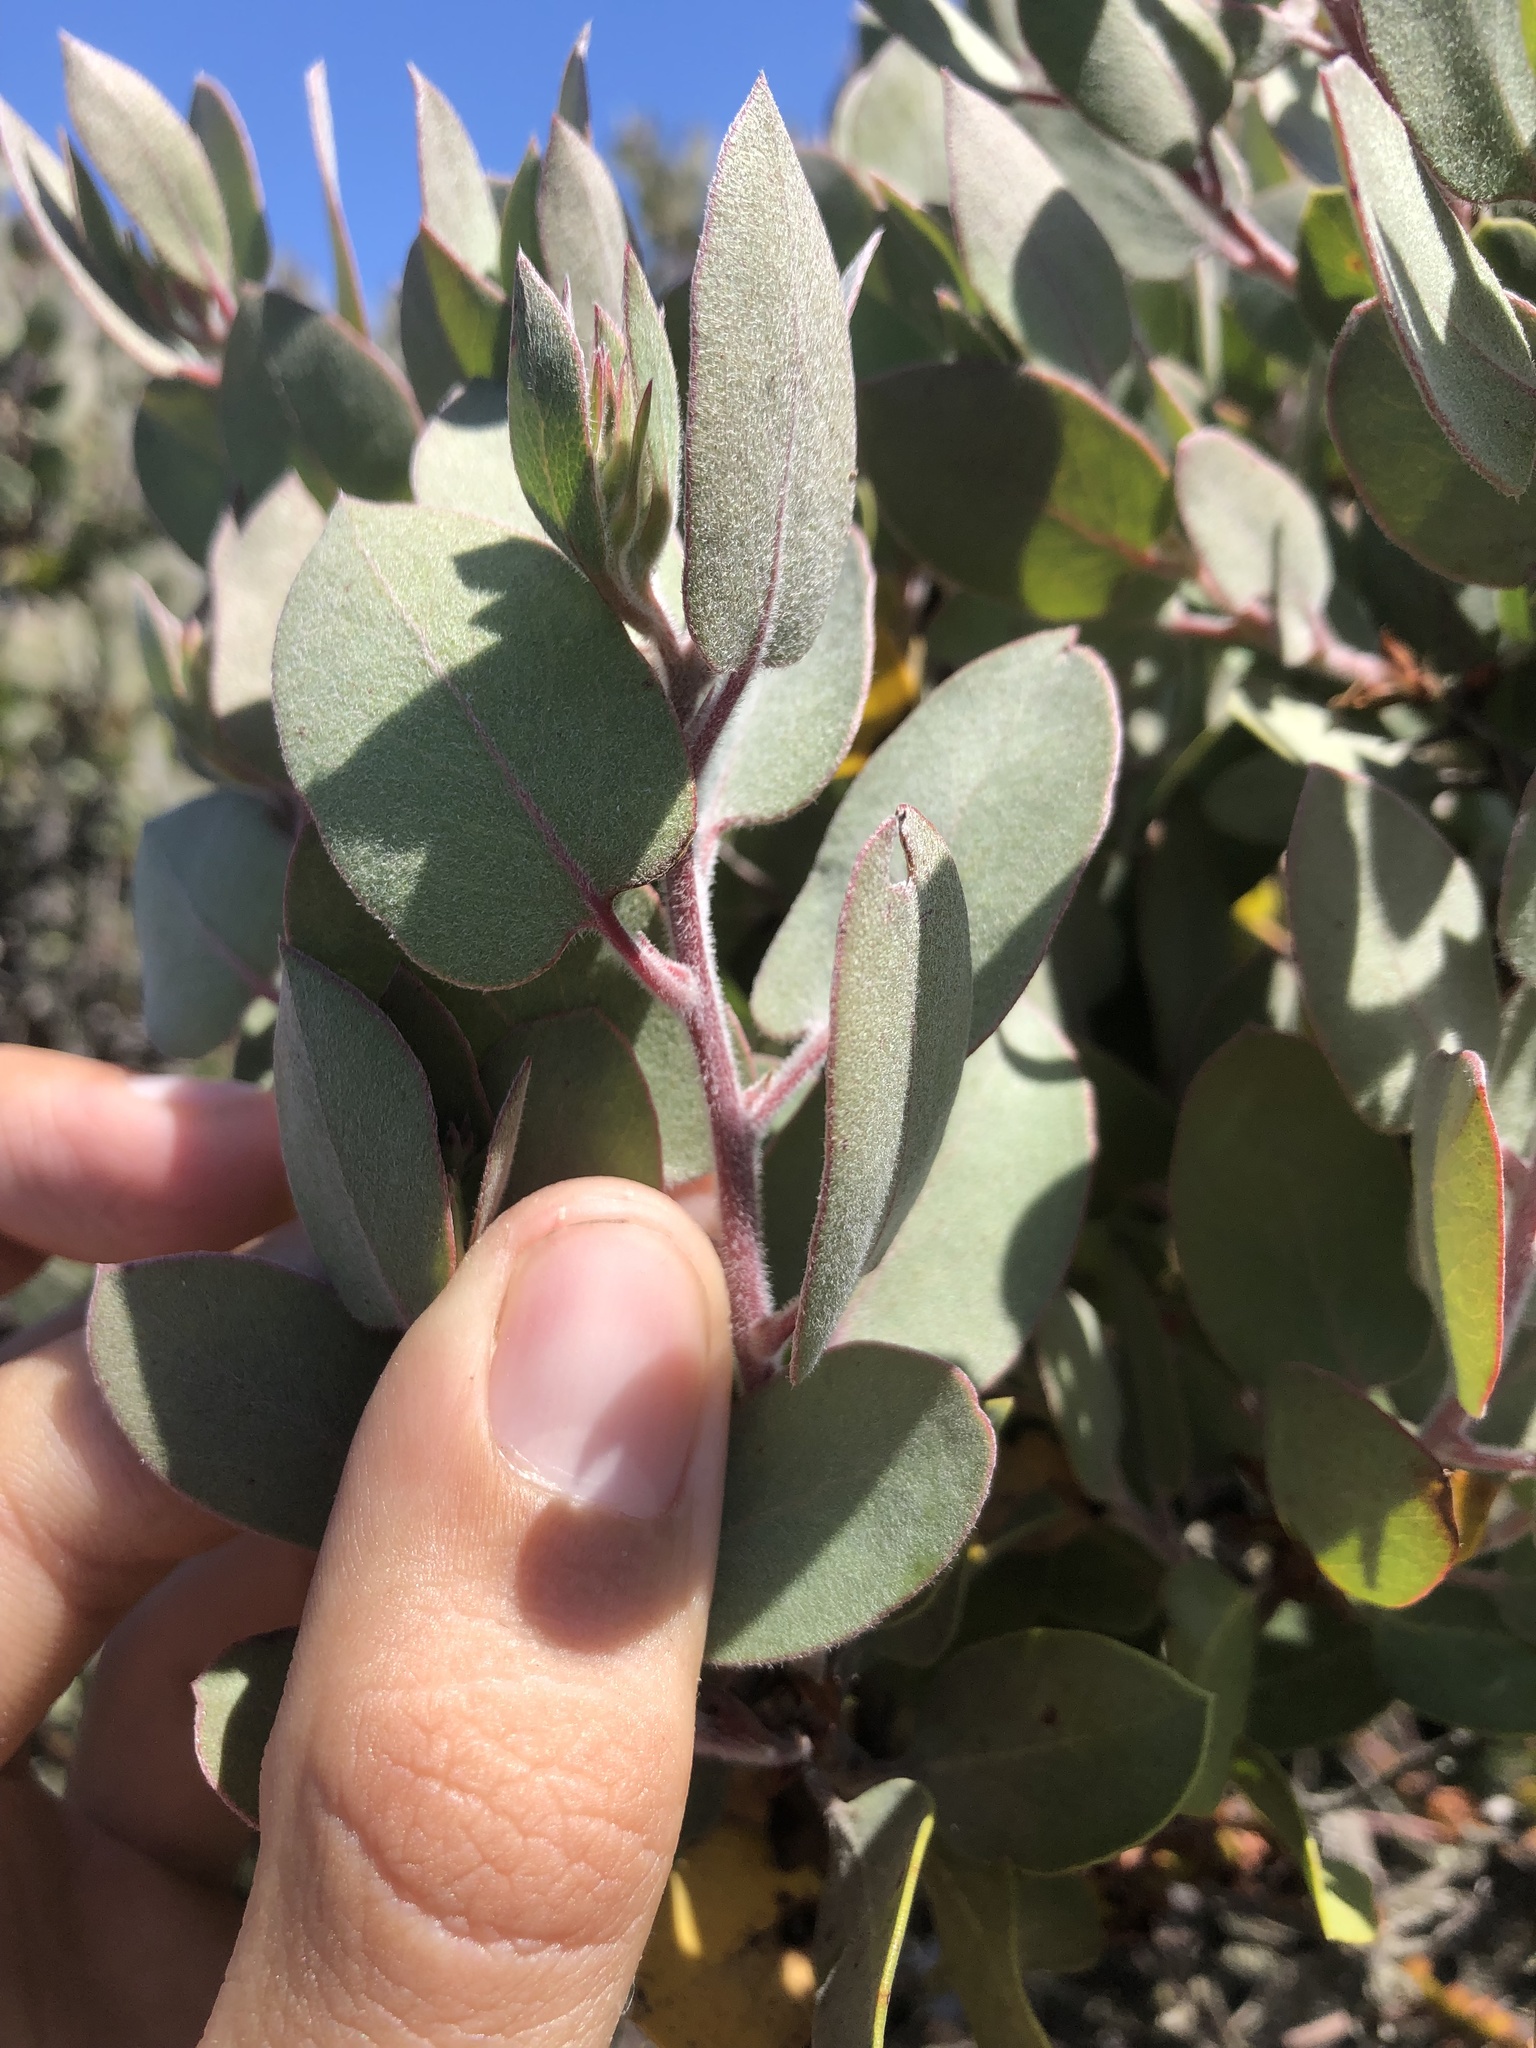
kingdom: Plantae
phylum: Tracheophyta
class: Magnoliopsida
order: Ericales
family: Ericaceae
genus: Arctostaphylos
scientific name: Arctostaphylos obispoensis
